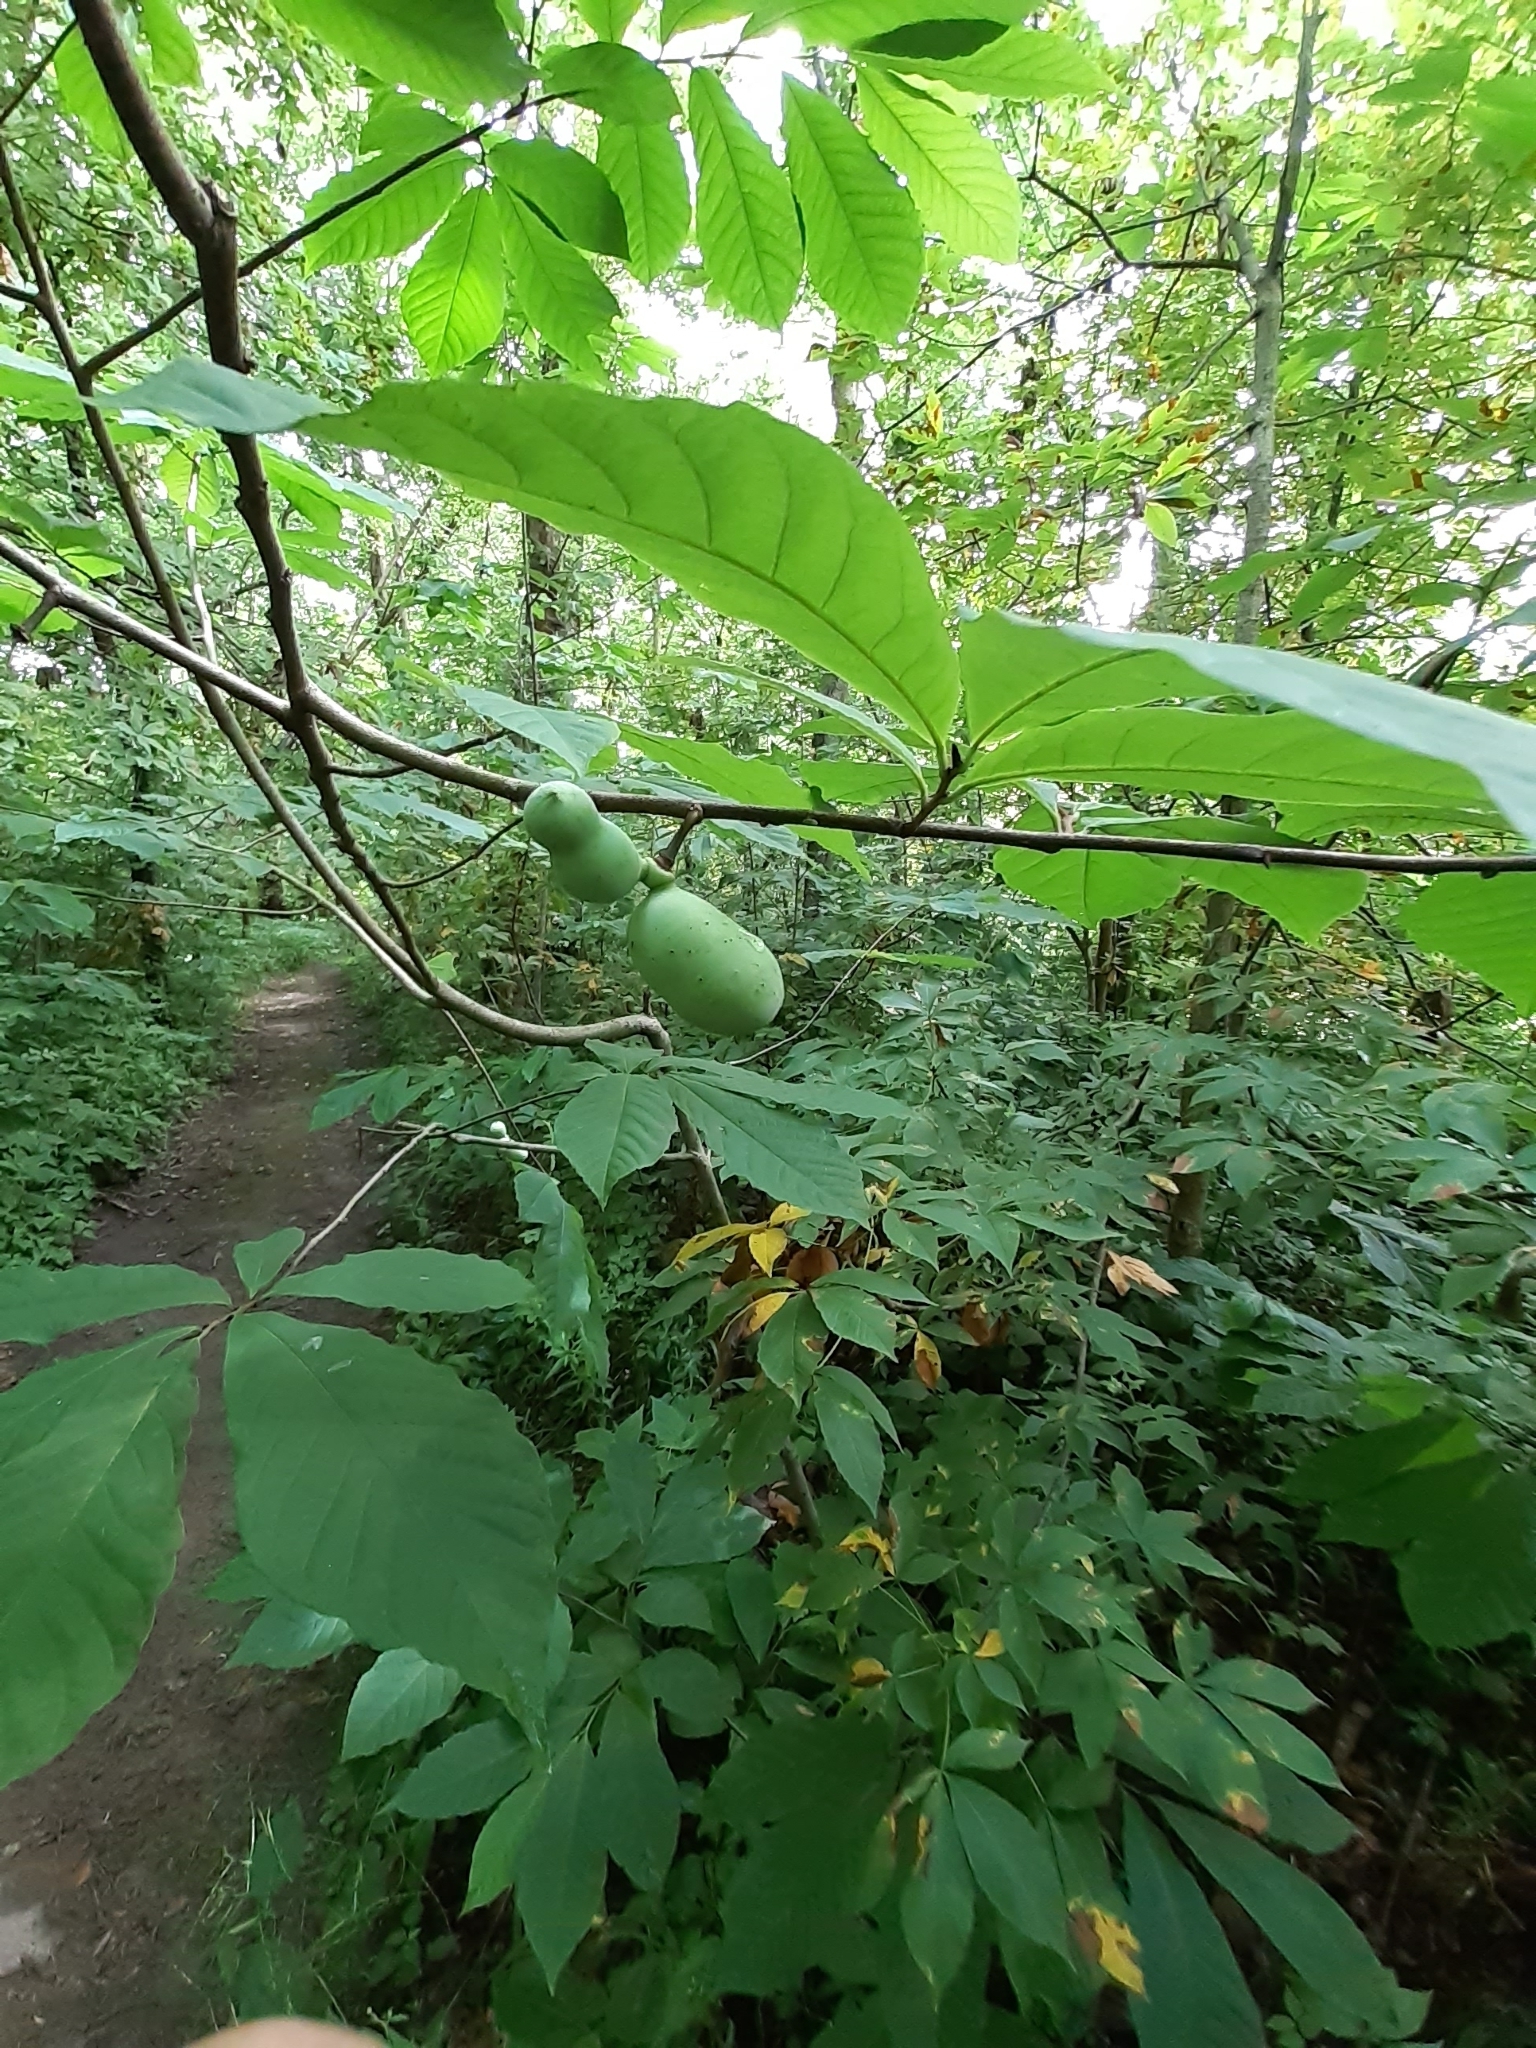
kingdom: Plantae
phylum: Tracheophyta
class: Magnoliopsida
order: Magnoliales
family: Annonaceae
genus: Asimina
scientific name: Asimina triloba
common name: Dog-banana
